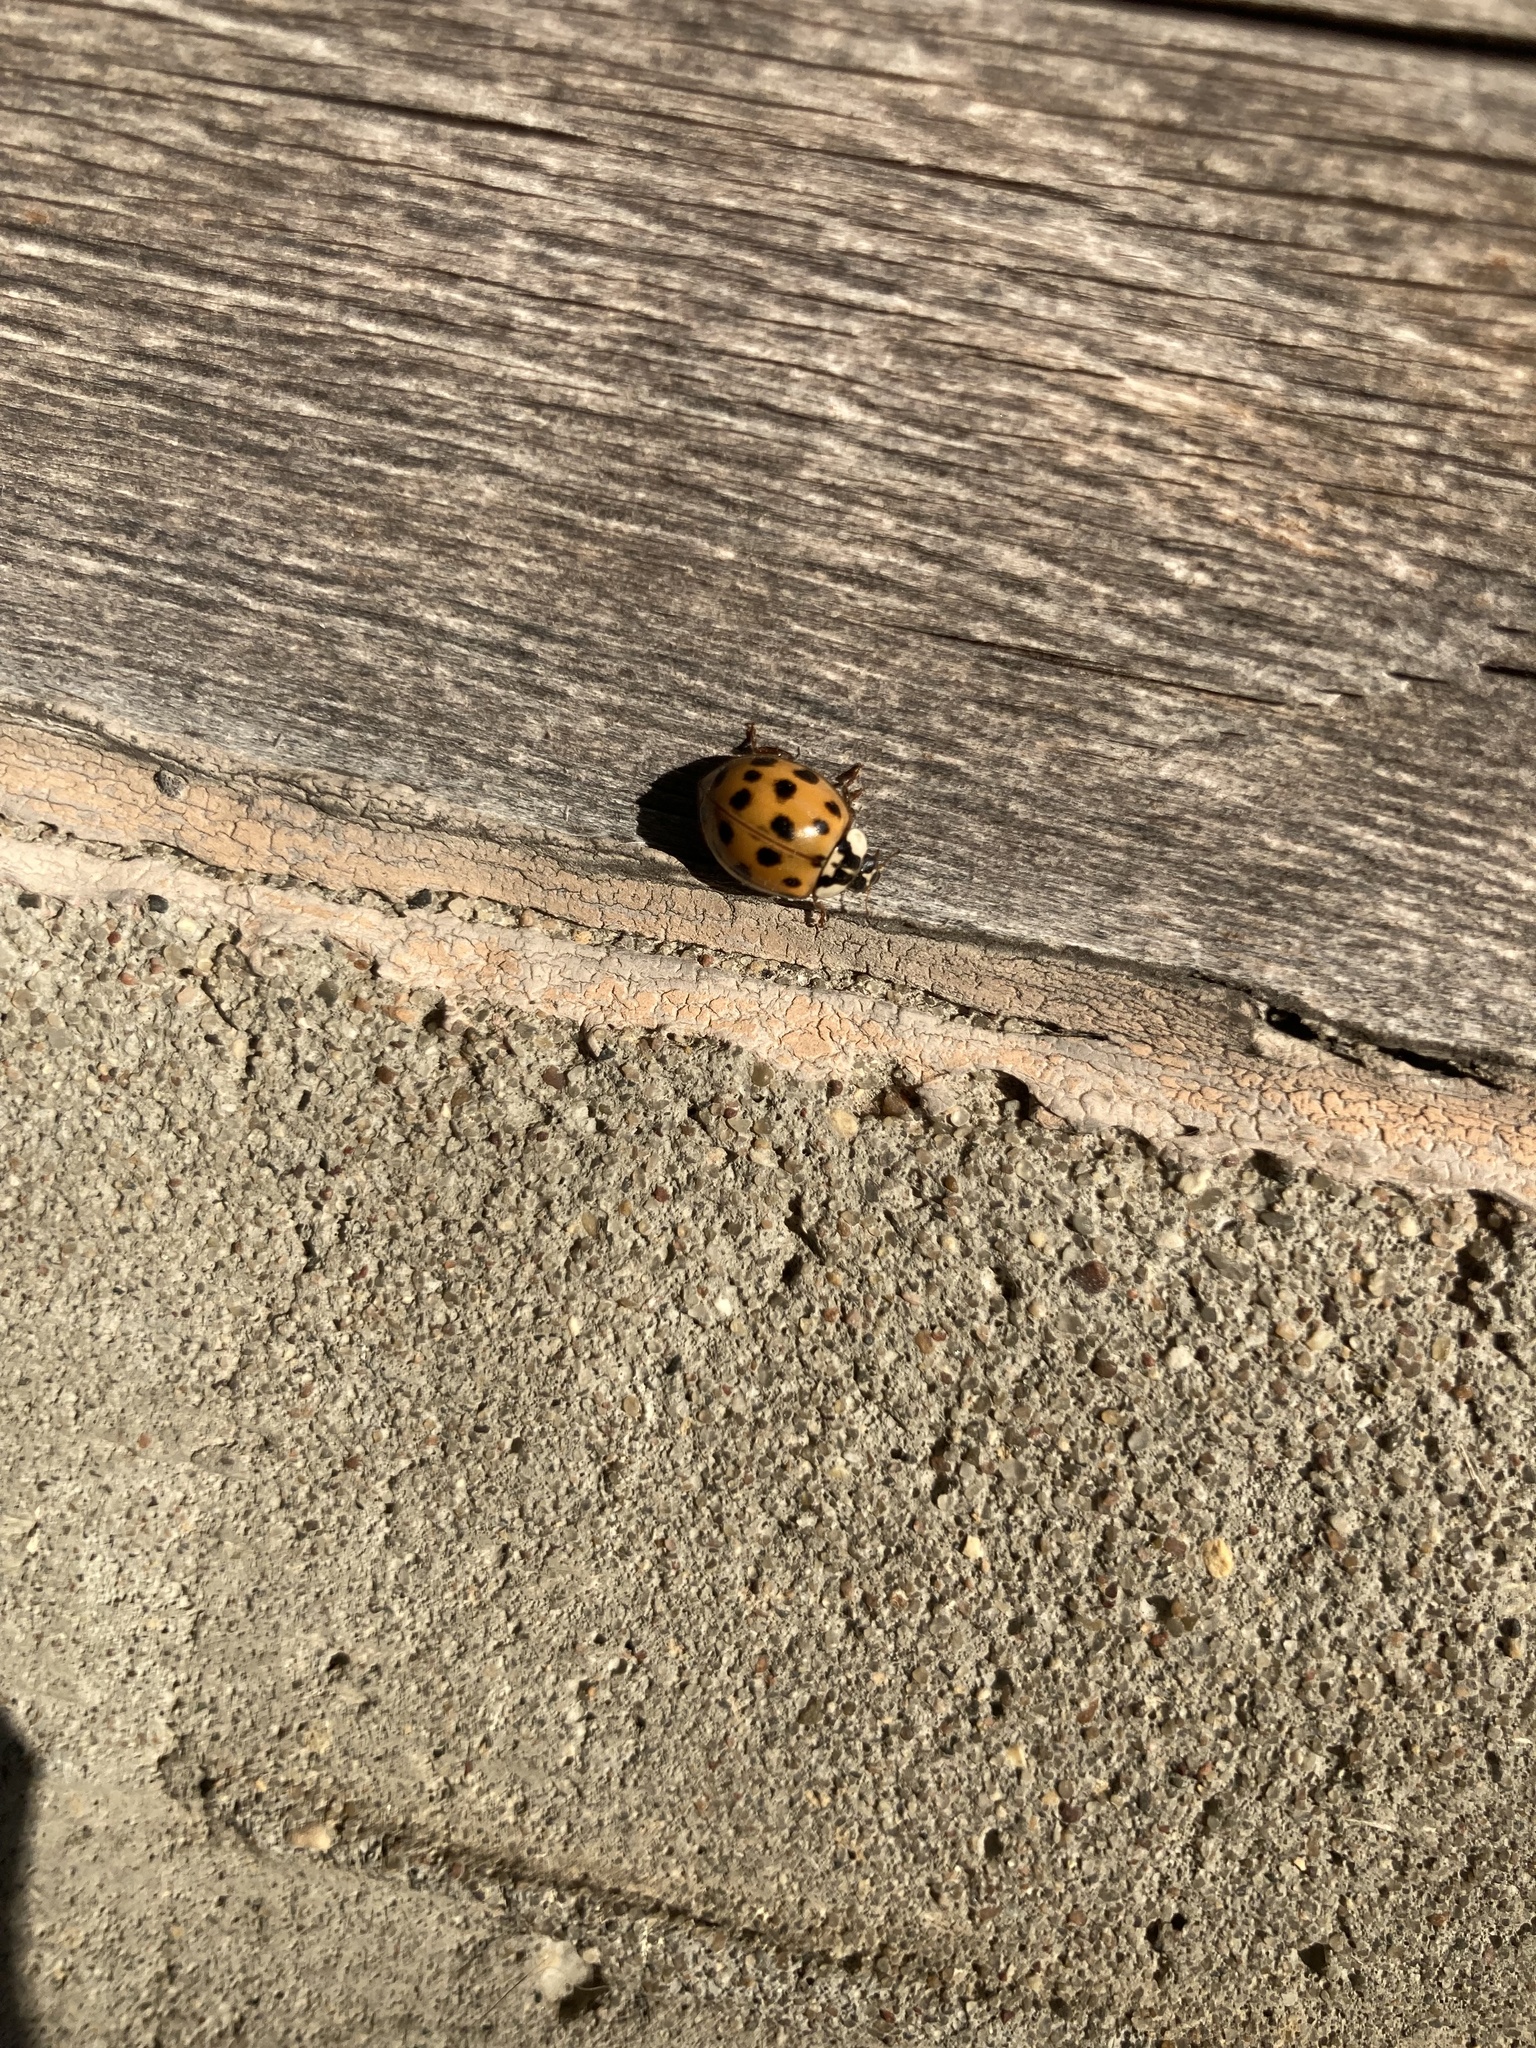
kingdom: Animalia
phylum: Arthropoda
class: Insecta
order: Coleoptera
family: Coccinellidae
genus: Harmonia
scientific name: Harmonia axyridis
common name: Harlequin ladybird
